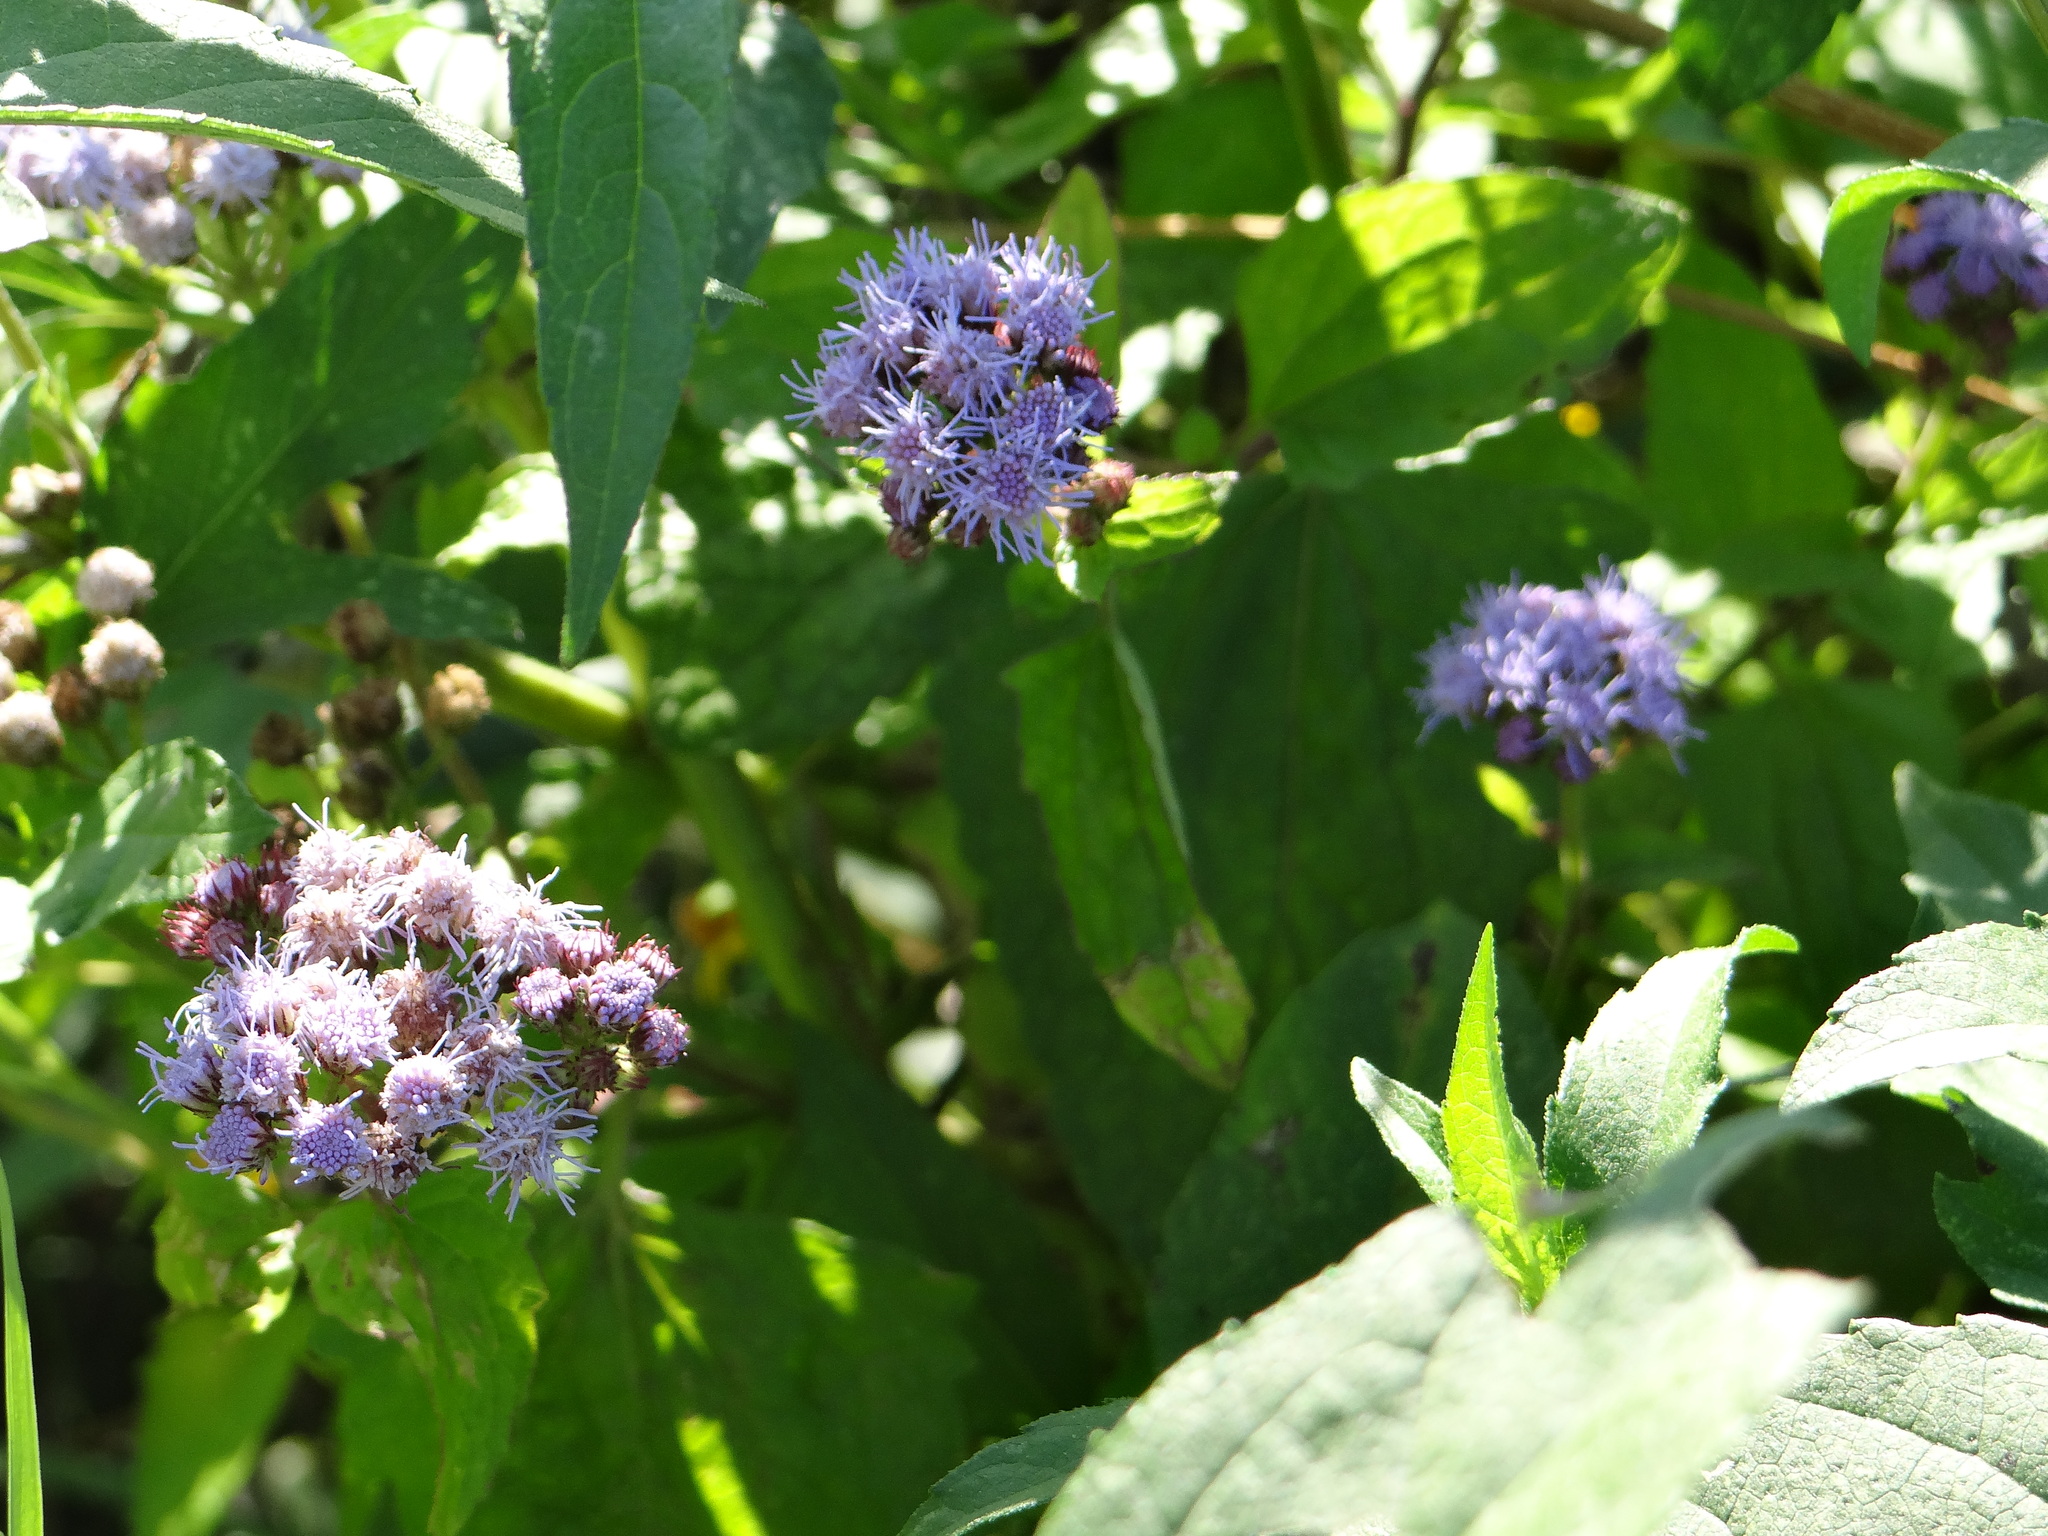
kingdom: Plantae
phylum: Tracheophyta
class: Magnoliopsida
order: Asterales
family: Asteraceae
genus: Conoclinium
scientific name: Conoclinium coelestinum
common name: Blue mistflower
